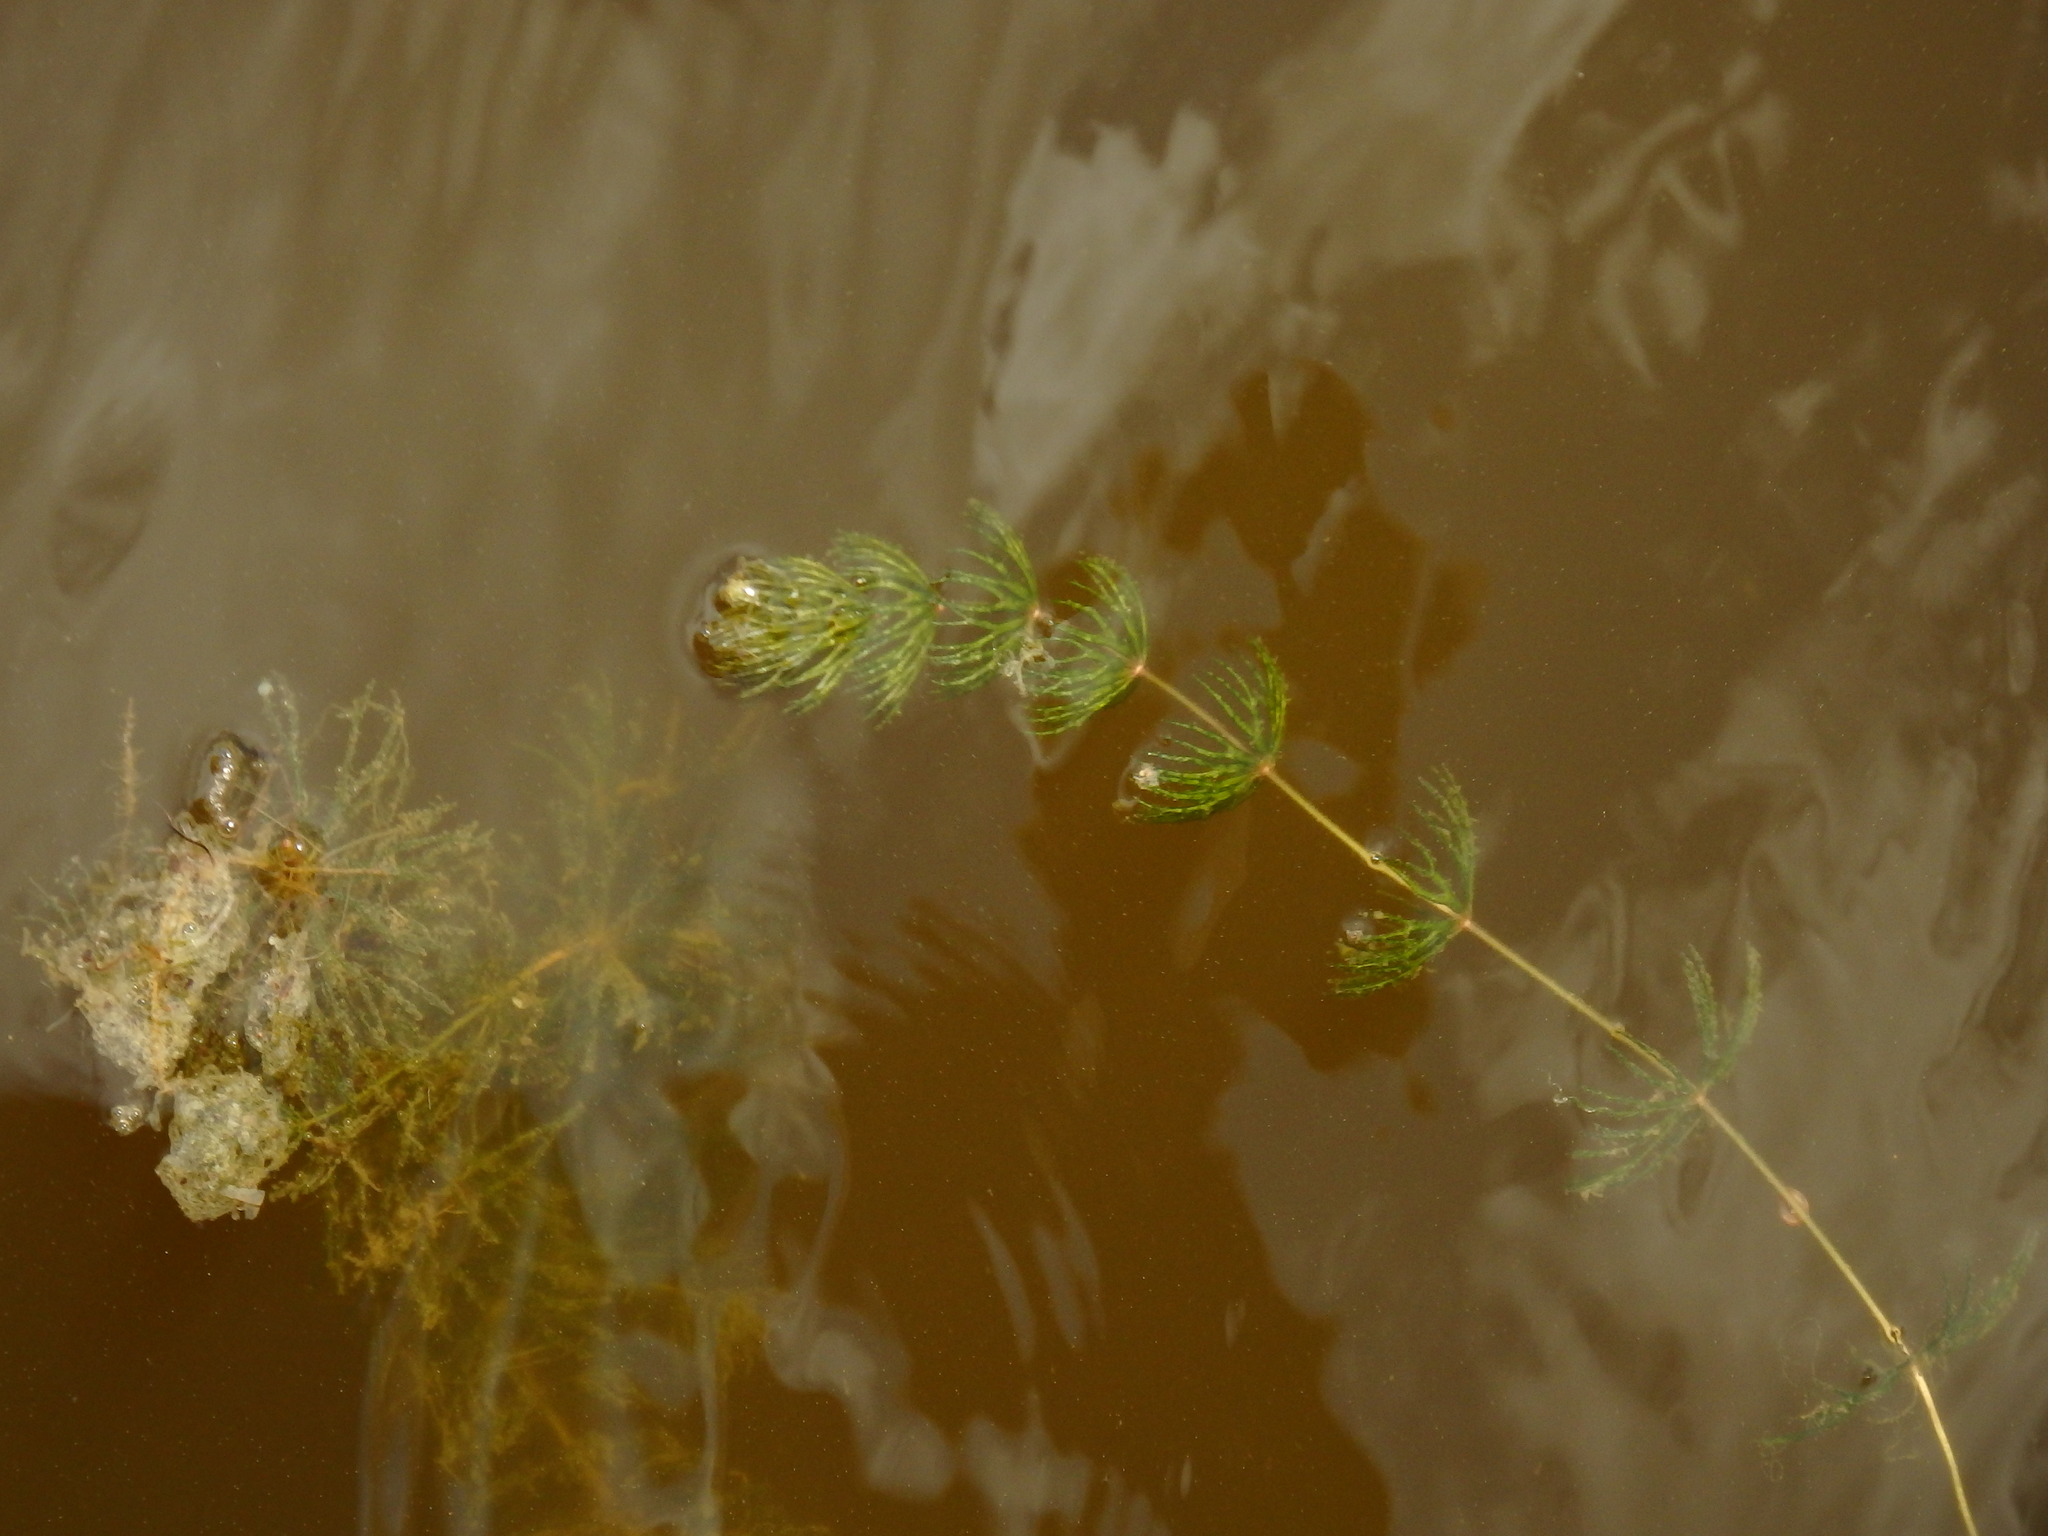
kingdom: Plantae
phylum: Tracheophyta
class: Magnoliopsida
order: Ceratophyllales
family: Ceratophyllaceae
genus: Ceratophyllum
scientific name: Ceratophyllum demersum
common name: Rigid hornwort
